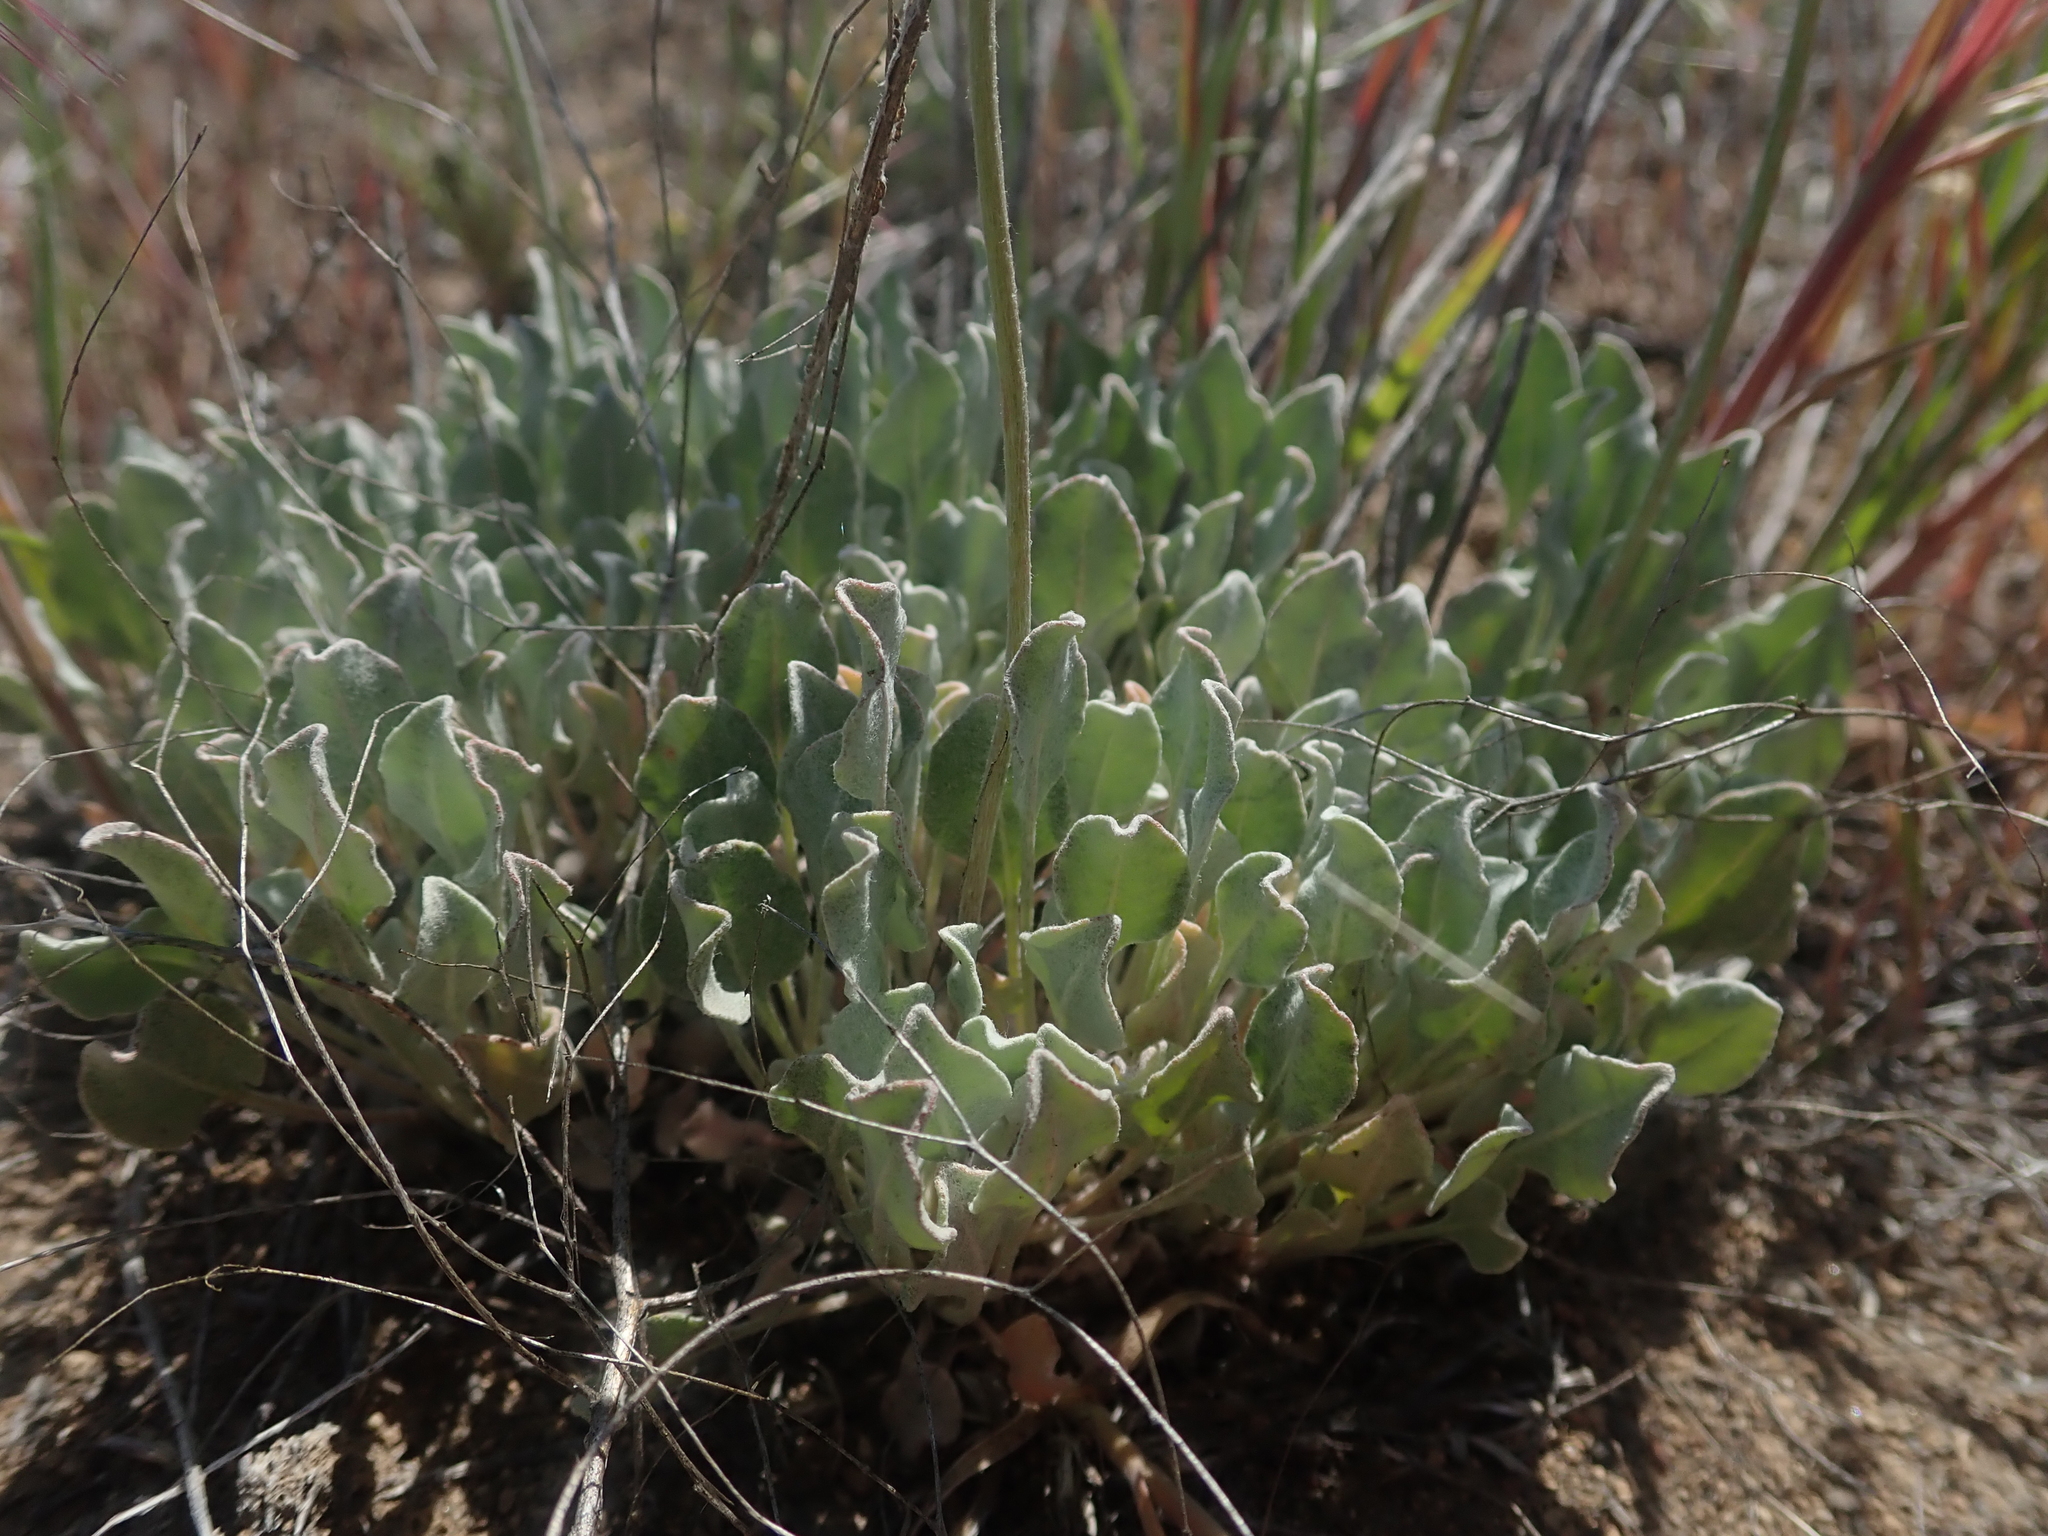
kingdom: Plantae
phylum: Tracheophyta
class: Magnoliopsida
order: Caryophyllales
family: Polygonaceae
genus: Eriogonum
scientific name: Eriogonum ovalifolium
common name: Cushion buckwheat
